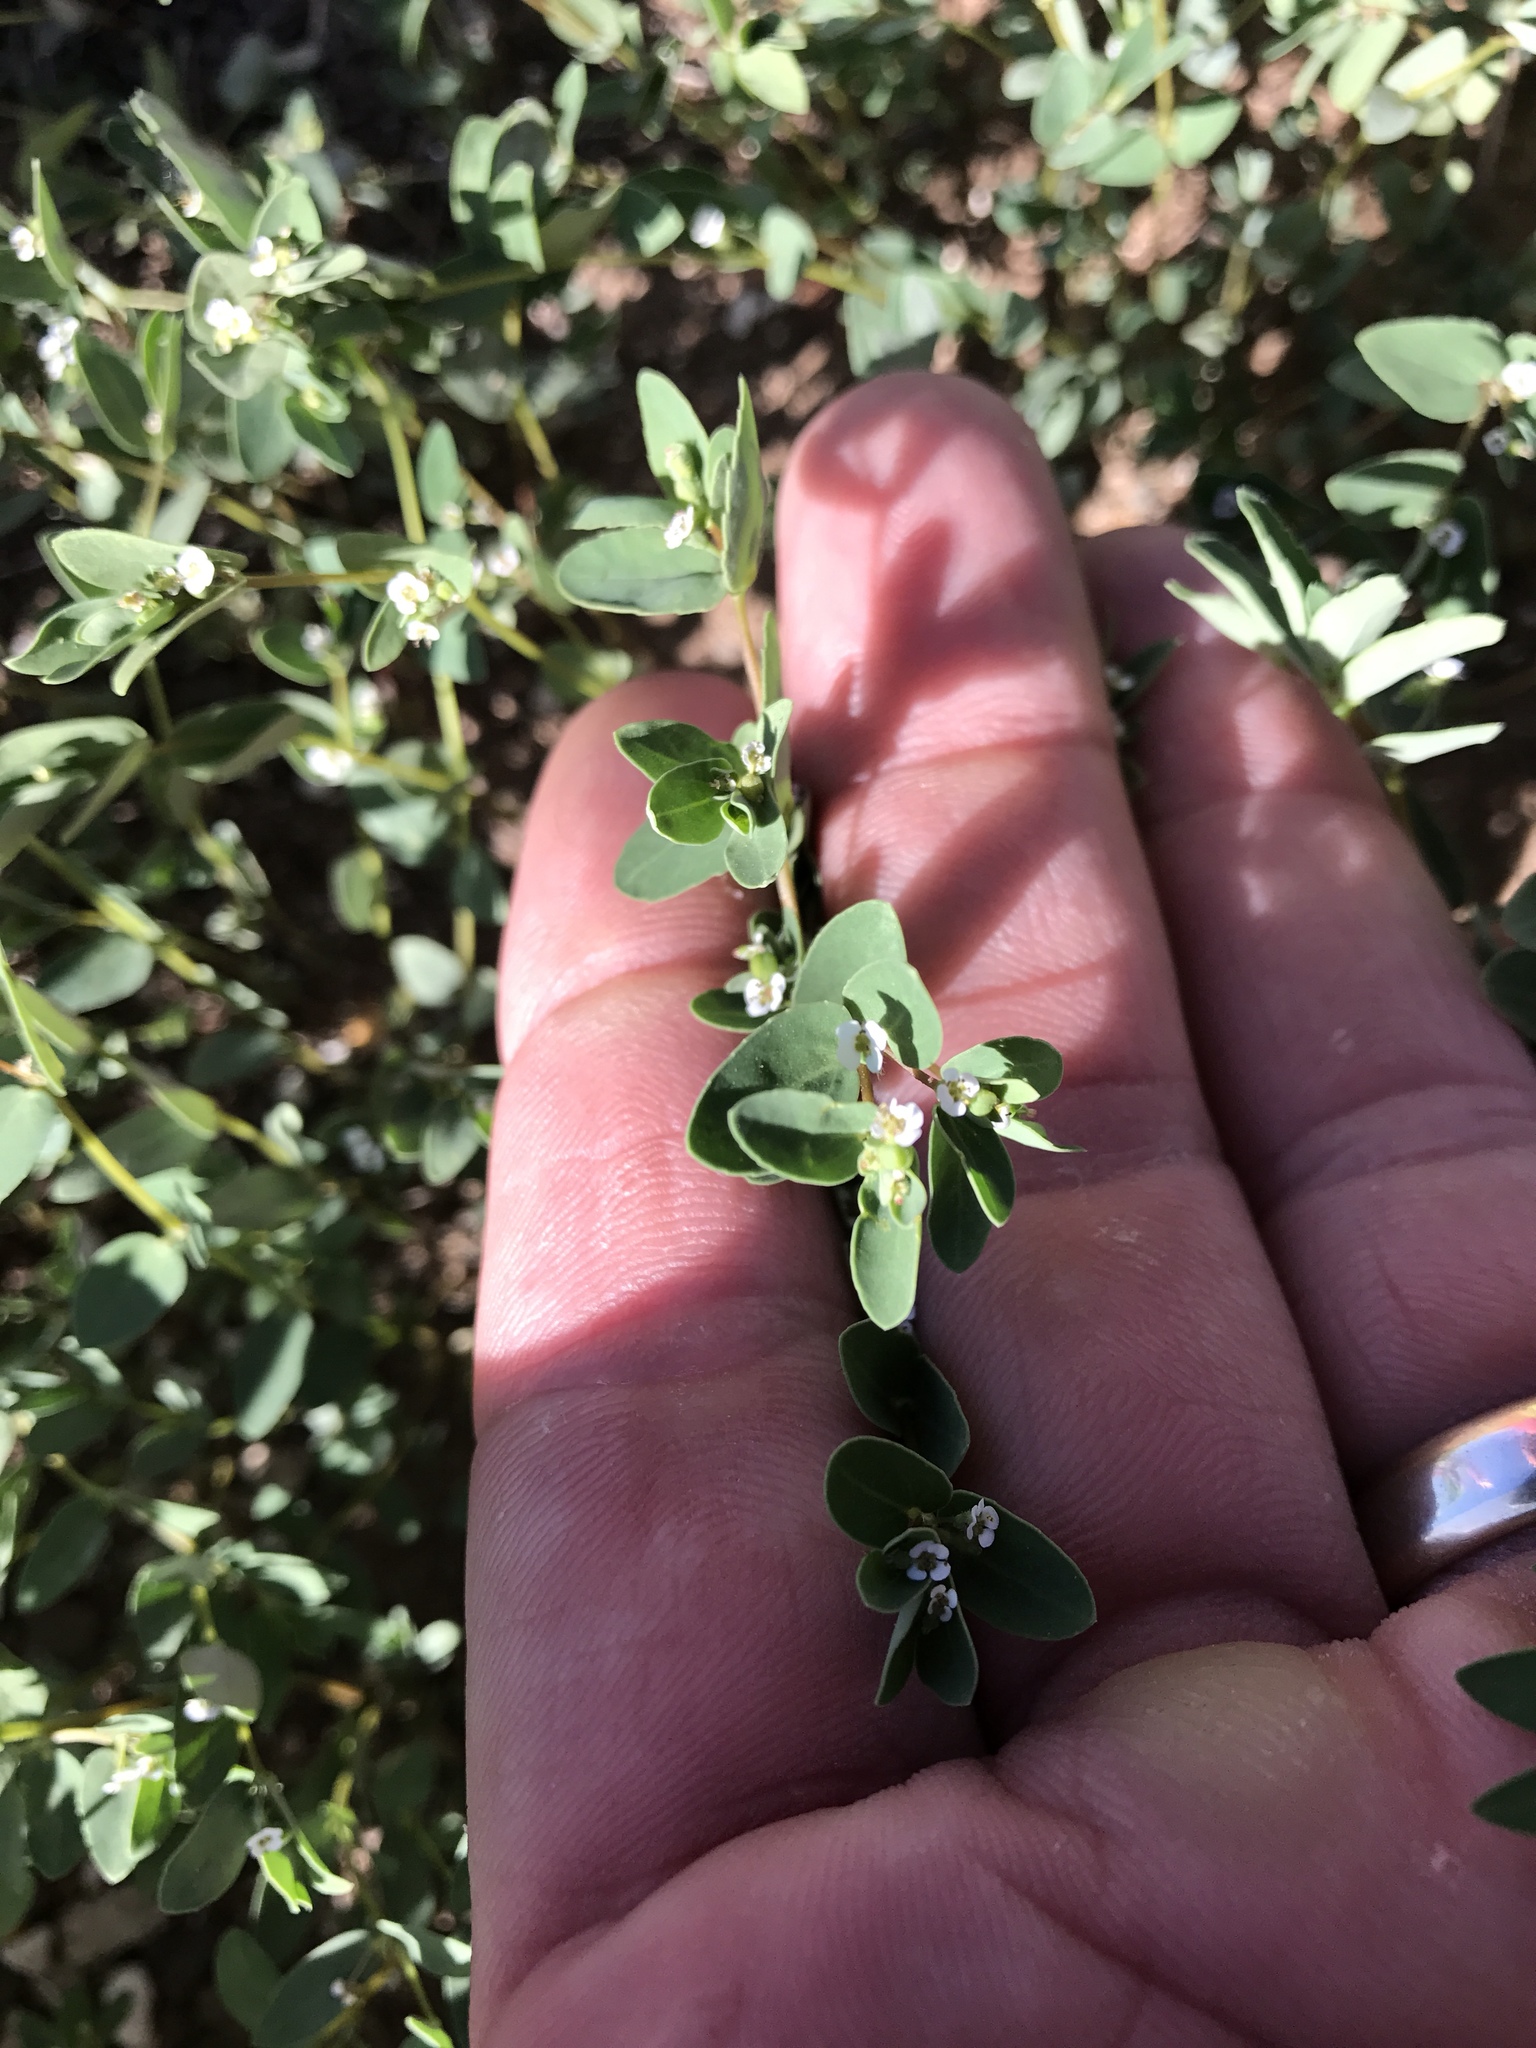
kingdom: Plantae
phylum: Tracheophyta
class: Magnoliopsida
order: Malpighiales
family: Euphorbiaceae
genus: Euphorbia
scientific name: Euphorbia capitellata
